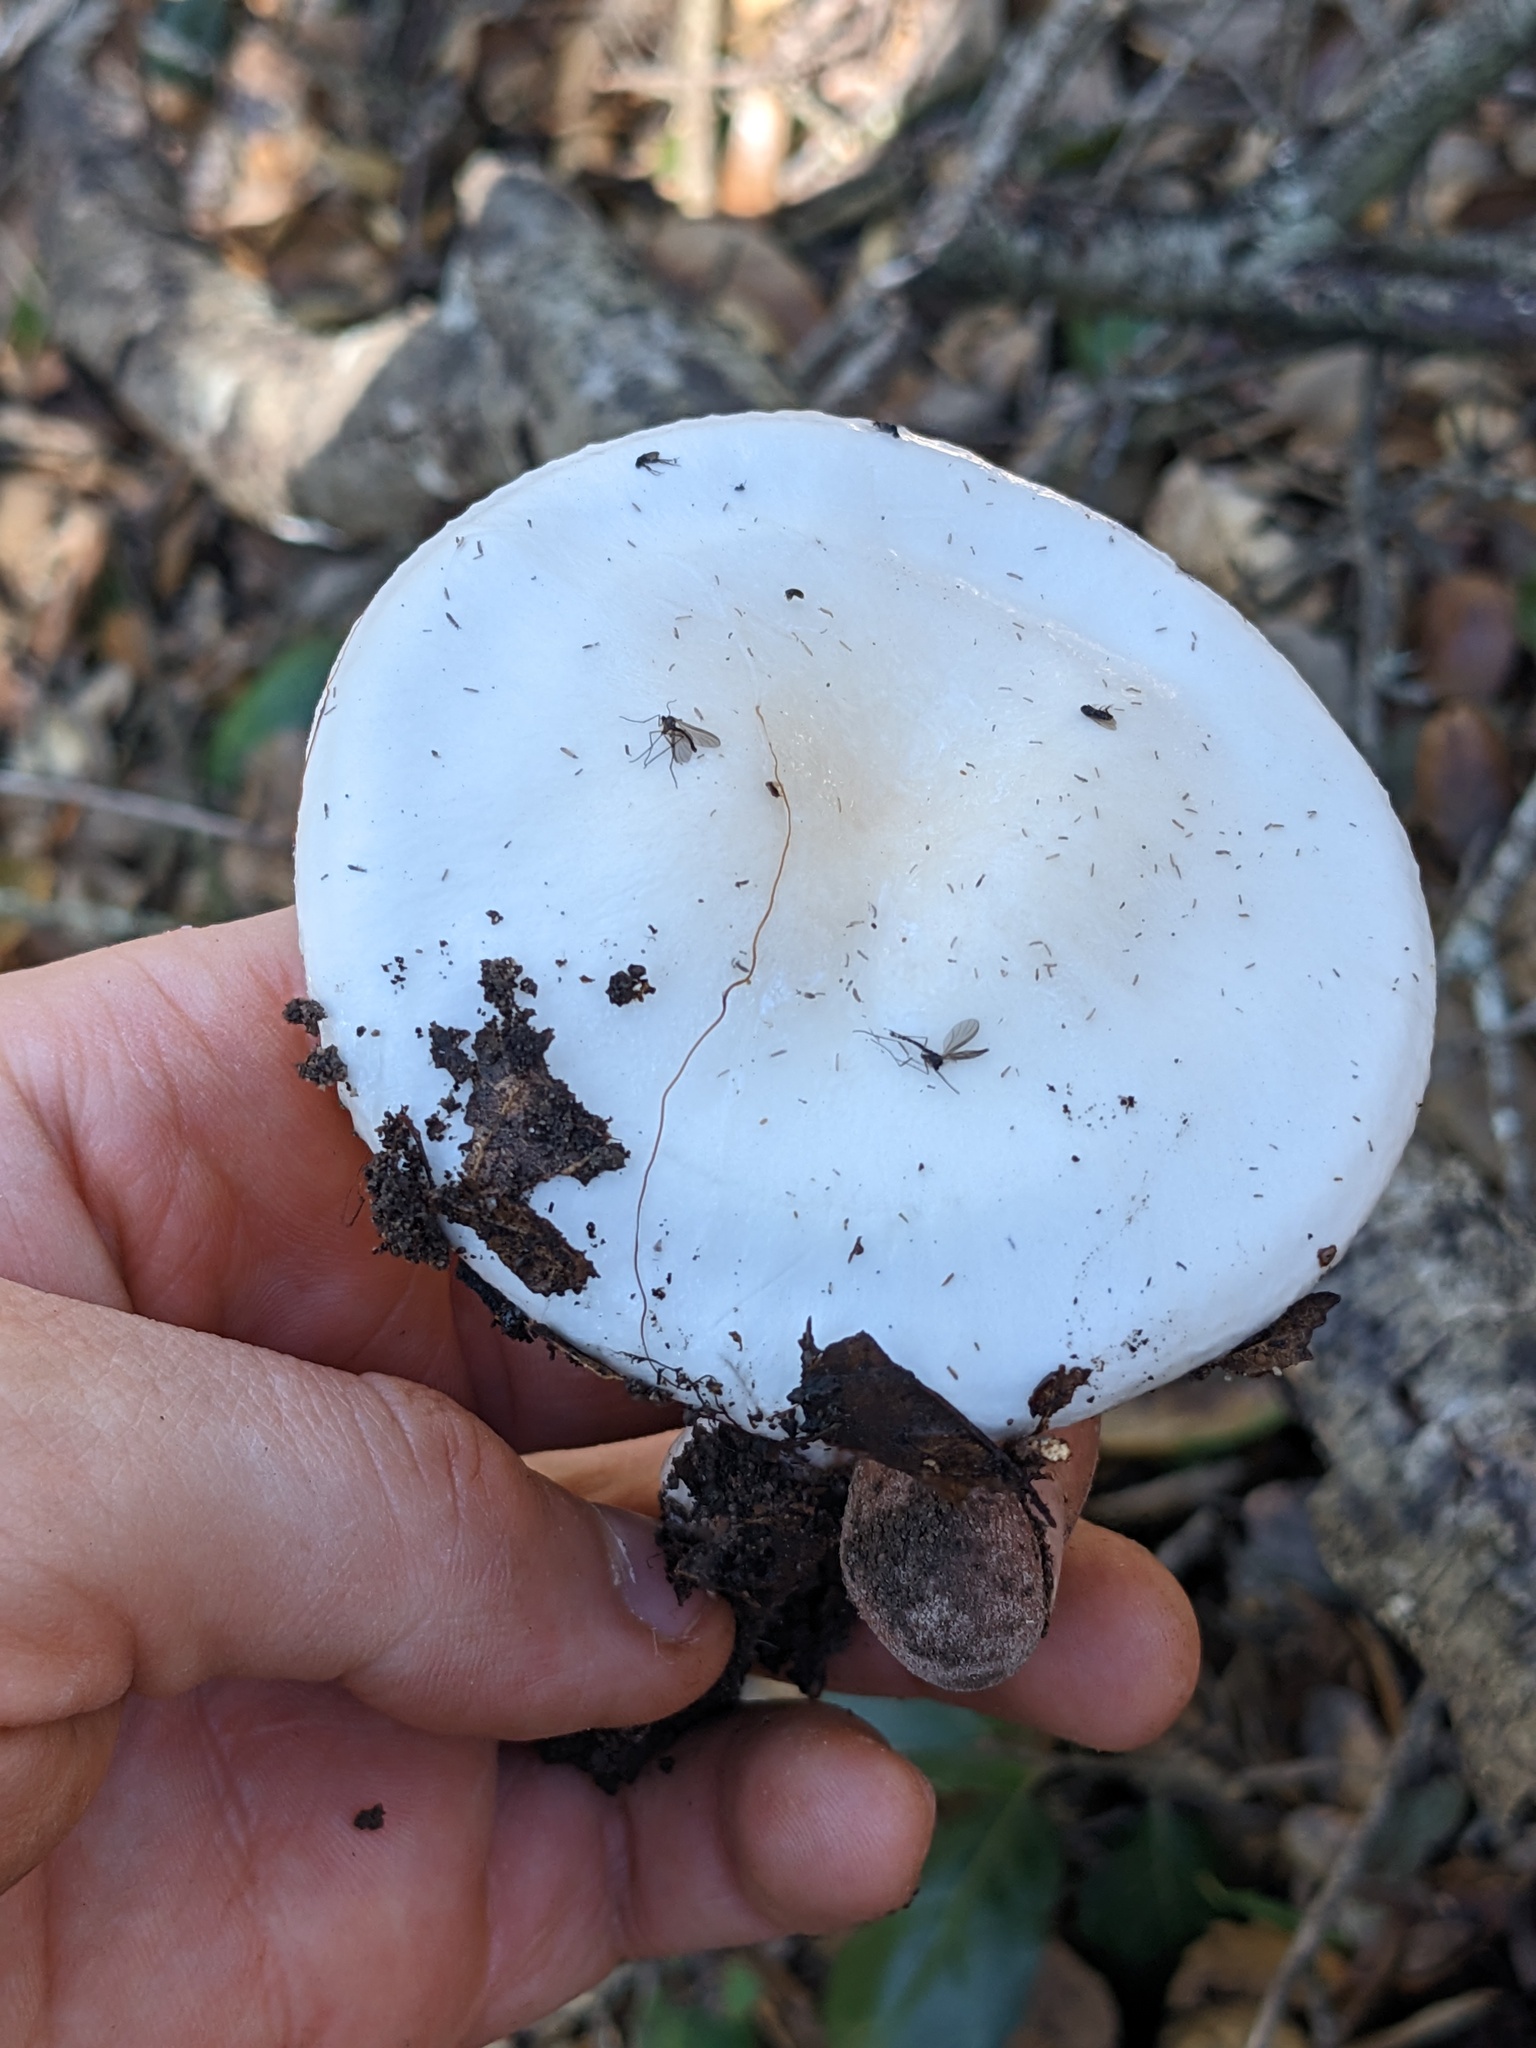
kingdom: Fungi
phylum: Basidiomycota
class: Agaricomycetes
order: Agaricales
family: Hygrophoraceae
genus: Hygrophorus
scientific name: Hygrophorus eburneus
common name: Ivory wax-cap
